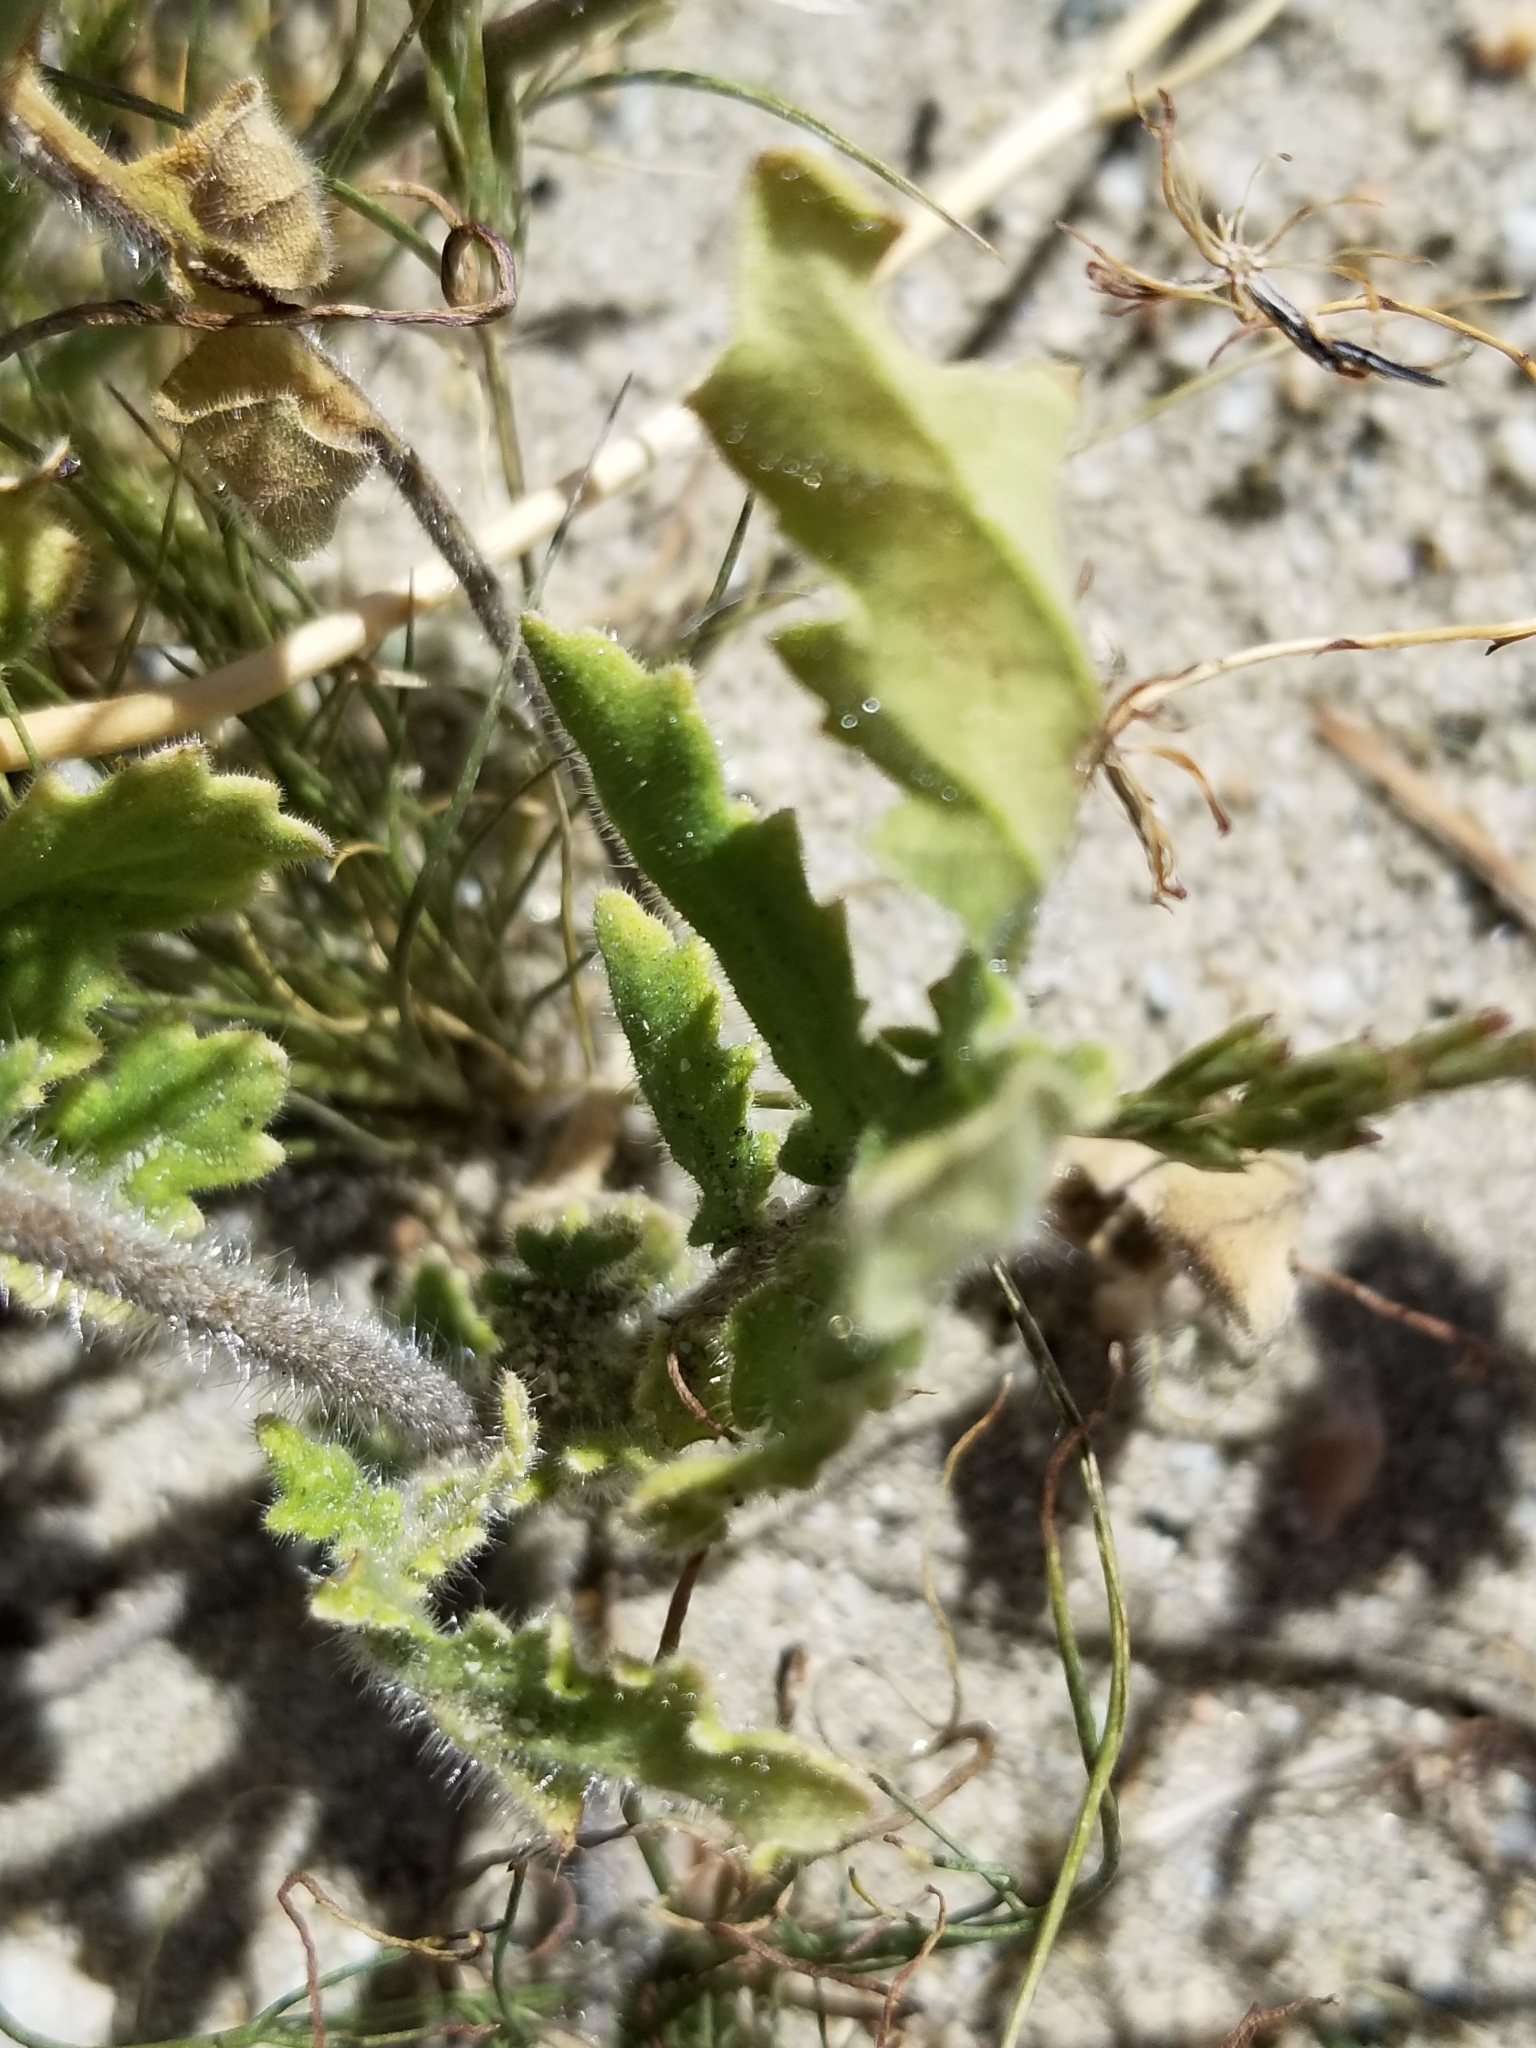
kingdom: Plantae
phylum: Tracheophyta
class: Magnoliopsida
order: Boraginales
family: Hydrophyllaceae
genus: Phacelia
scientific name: Phacelia crenulata
